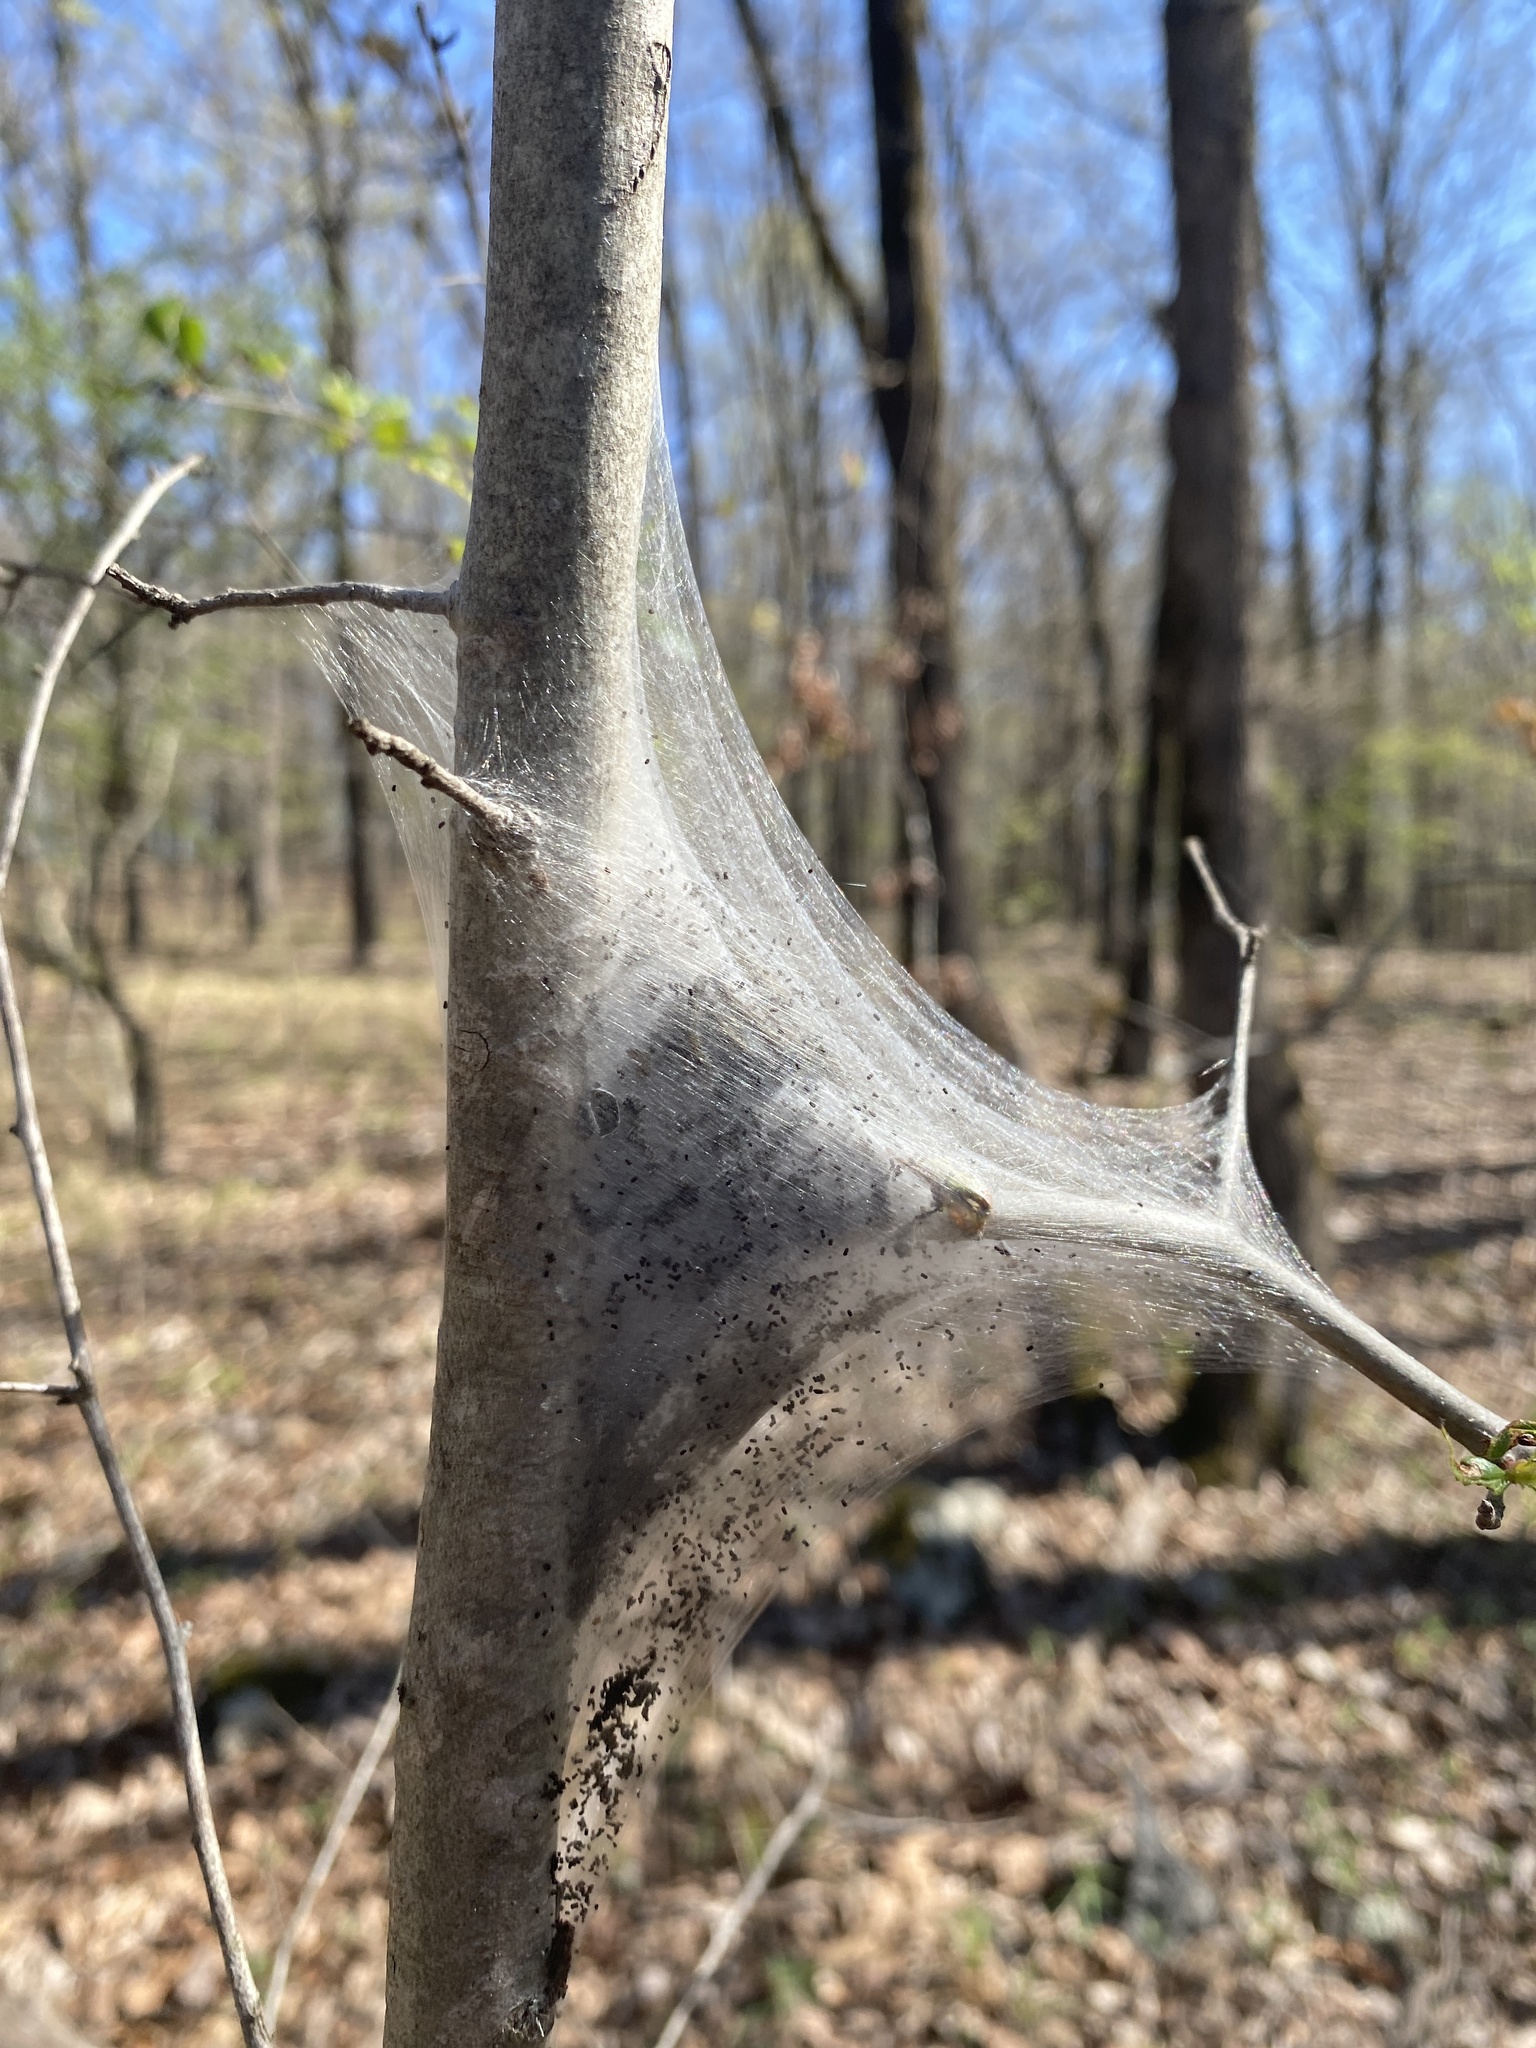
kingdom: Animalia
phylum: Arthropoda
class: Insecta
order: Lepidoptera
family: Lasiocampidae
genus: Malacosoma
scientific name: Malacosoma americana
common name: Eastern tent caterpillar moth
